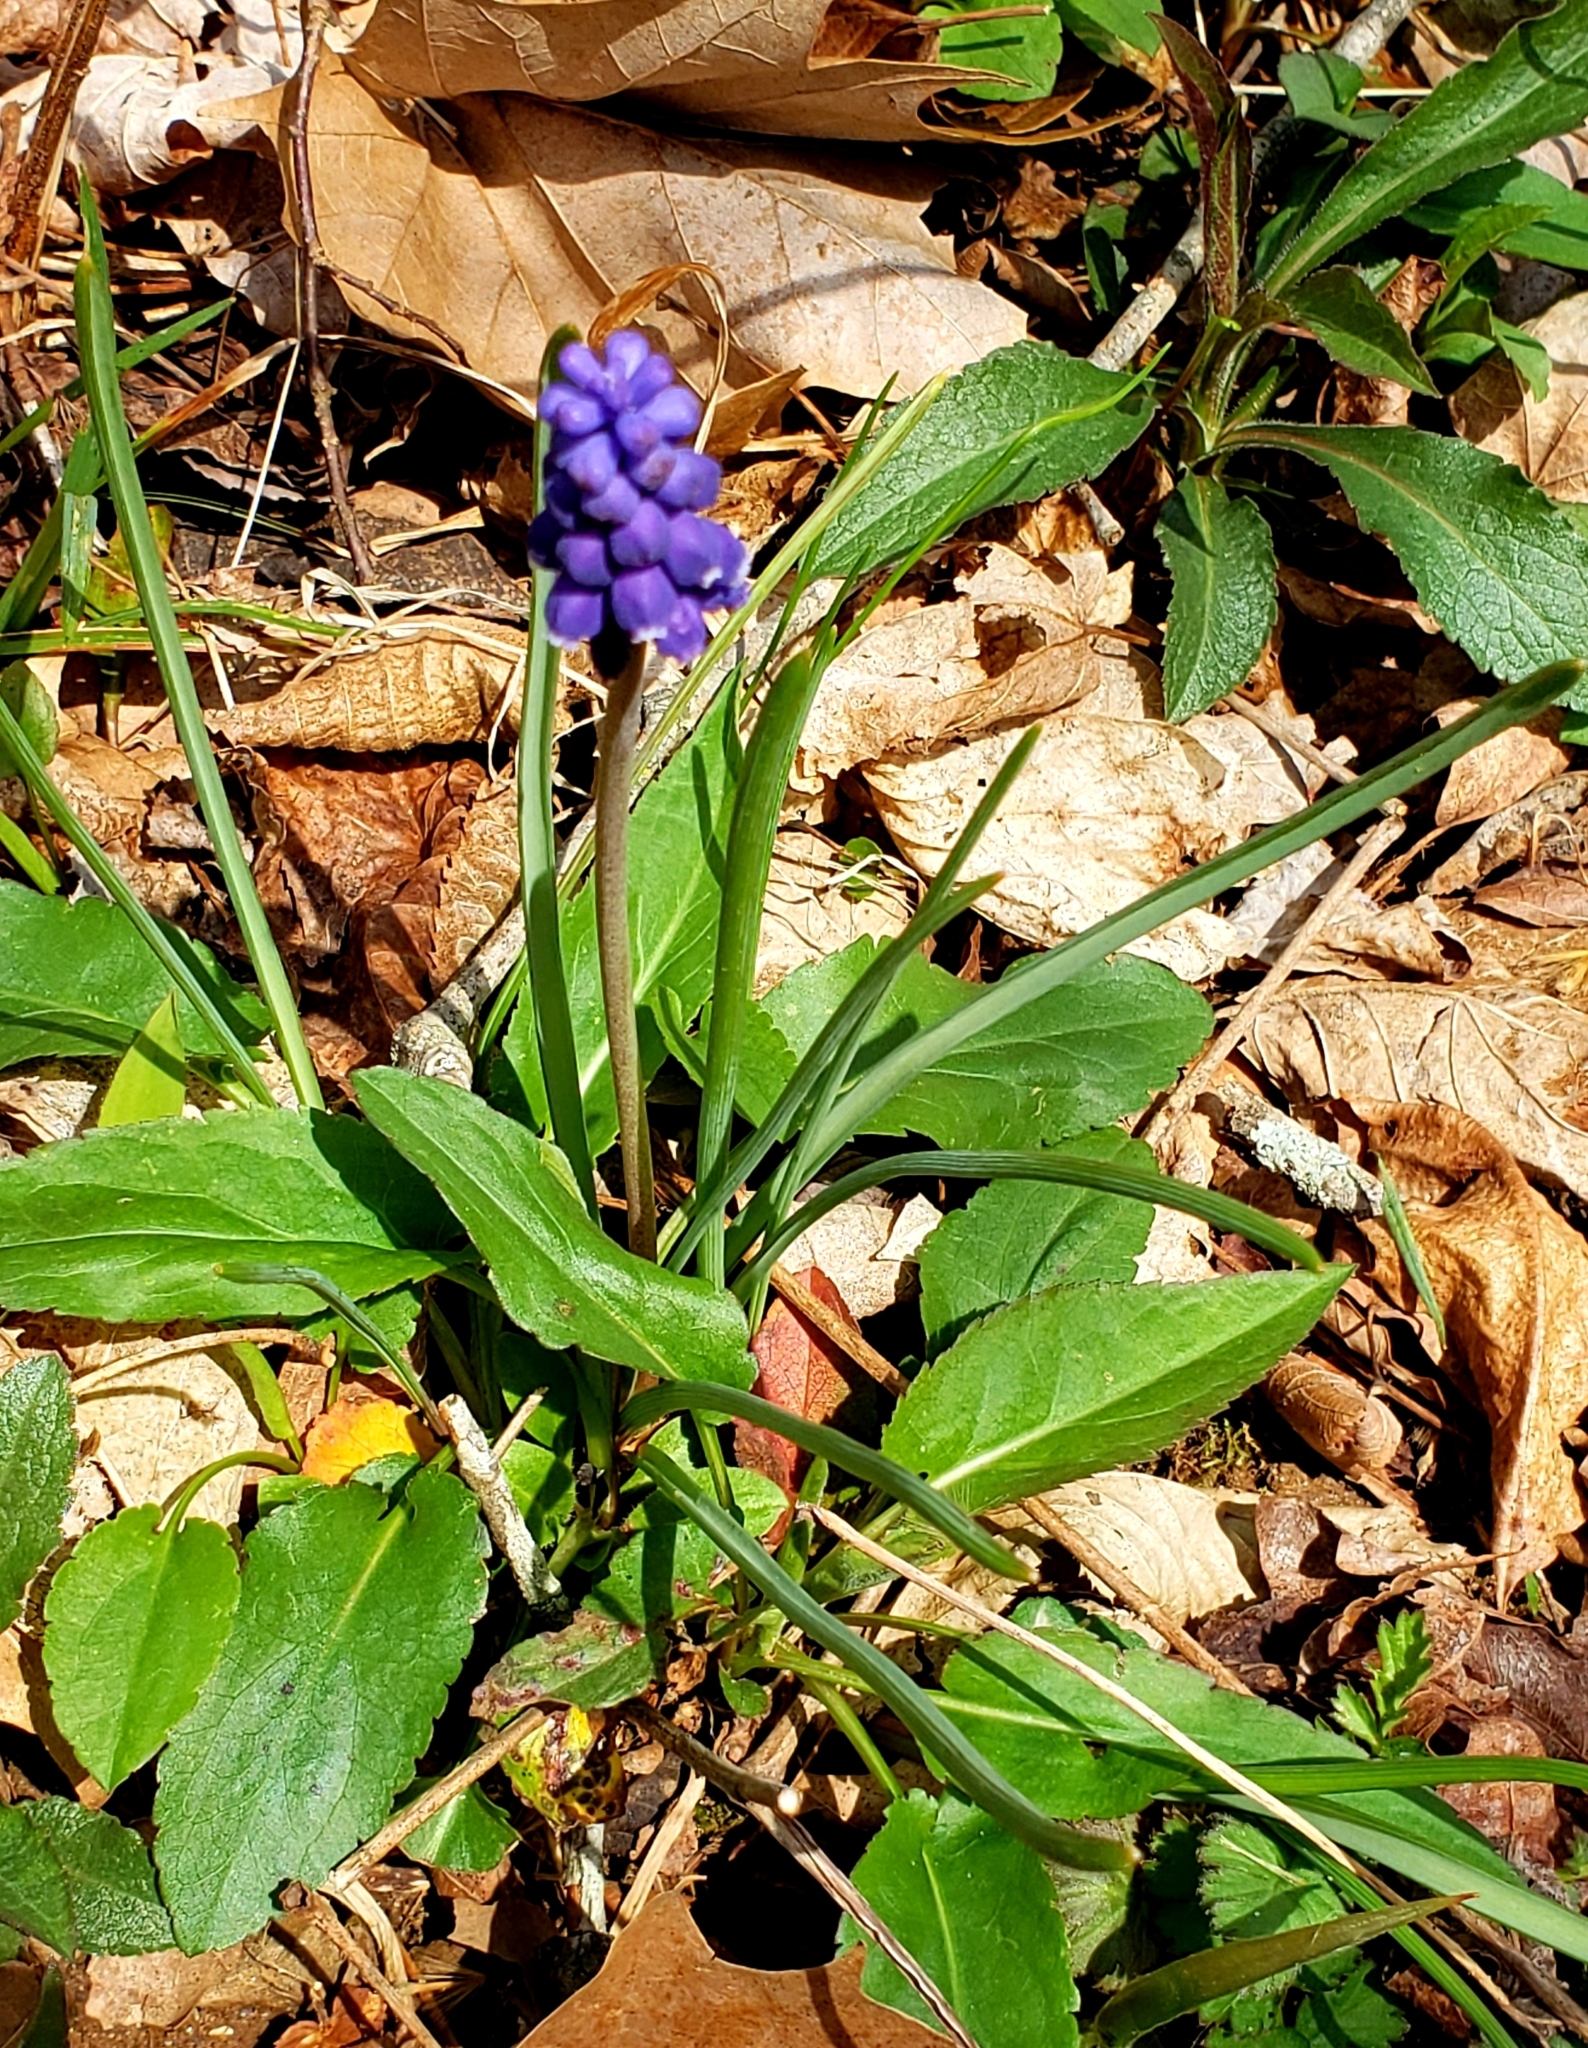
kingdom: Plantae
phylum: Tracheophyta
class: Liliopsida
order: Asparagales
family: Asparagaceae
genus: Muscari
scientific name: Muscari botryoides
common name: Compact grape-hyacinth
